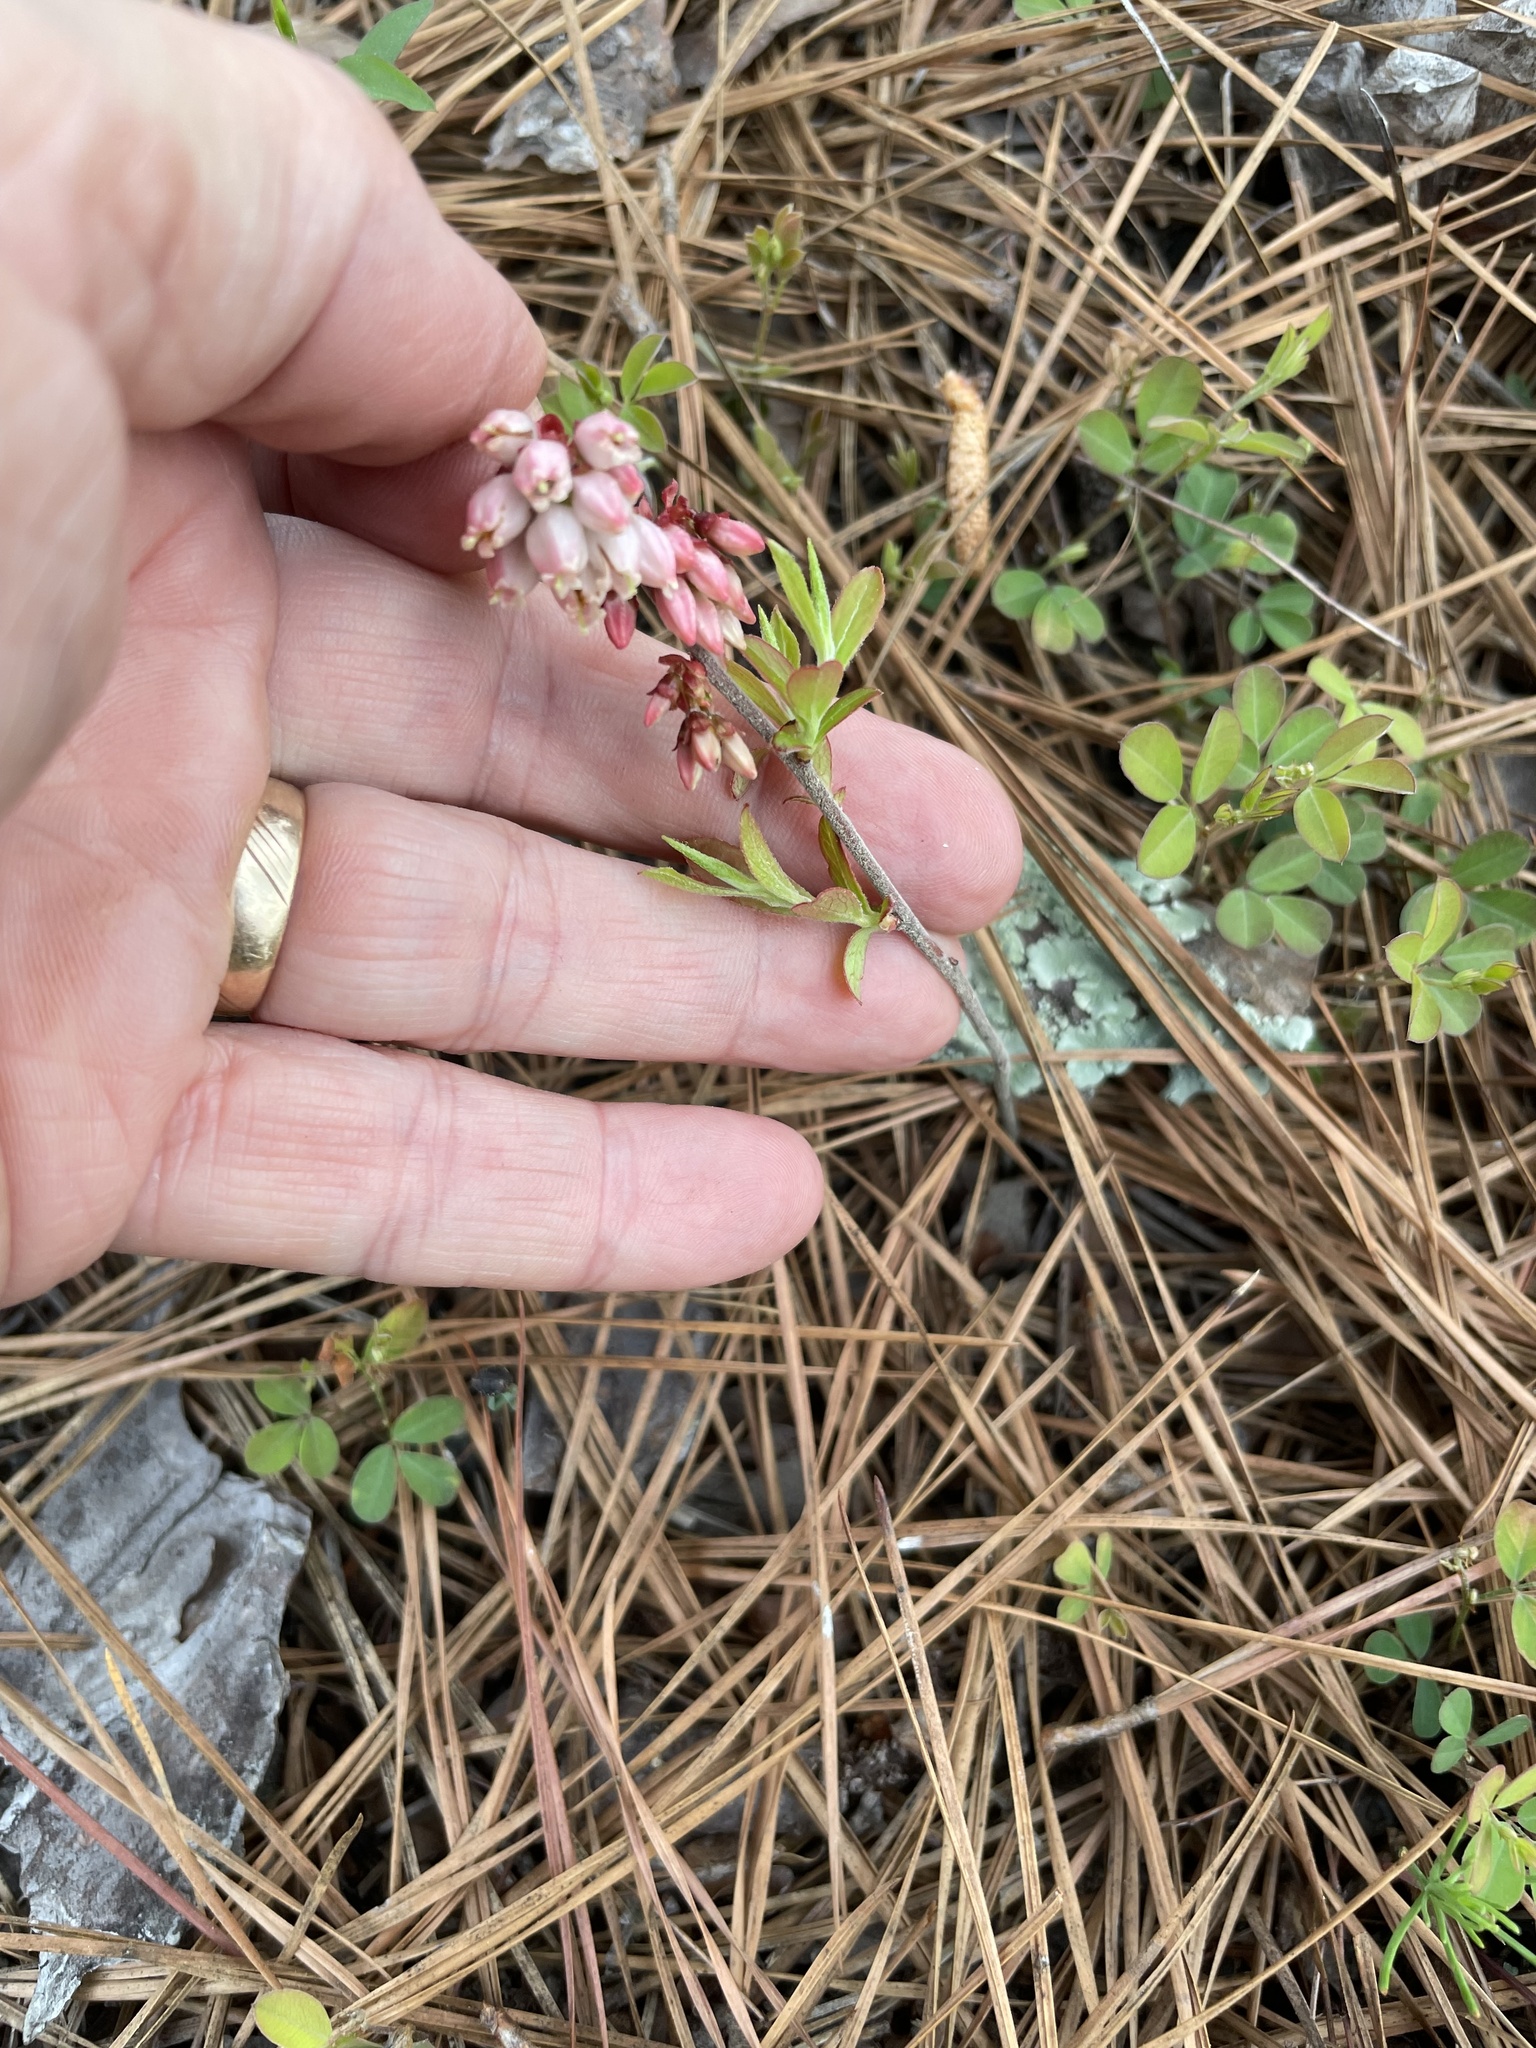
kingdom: Plantae
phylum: Tracheophyta
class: Magnoliopsida
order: Ericales
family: Ericaceae
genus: Vaccinium
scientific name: Vaccinium tenellum
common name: Southern blueberry
